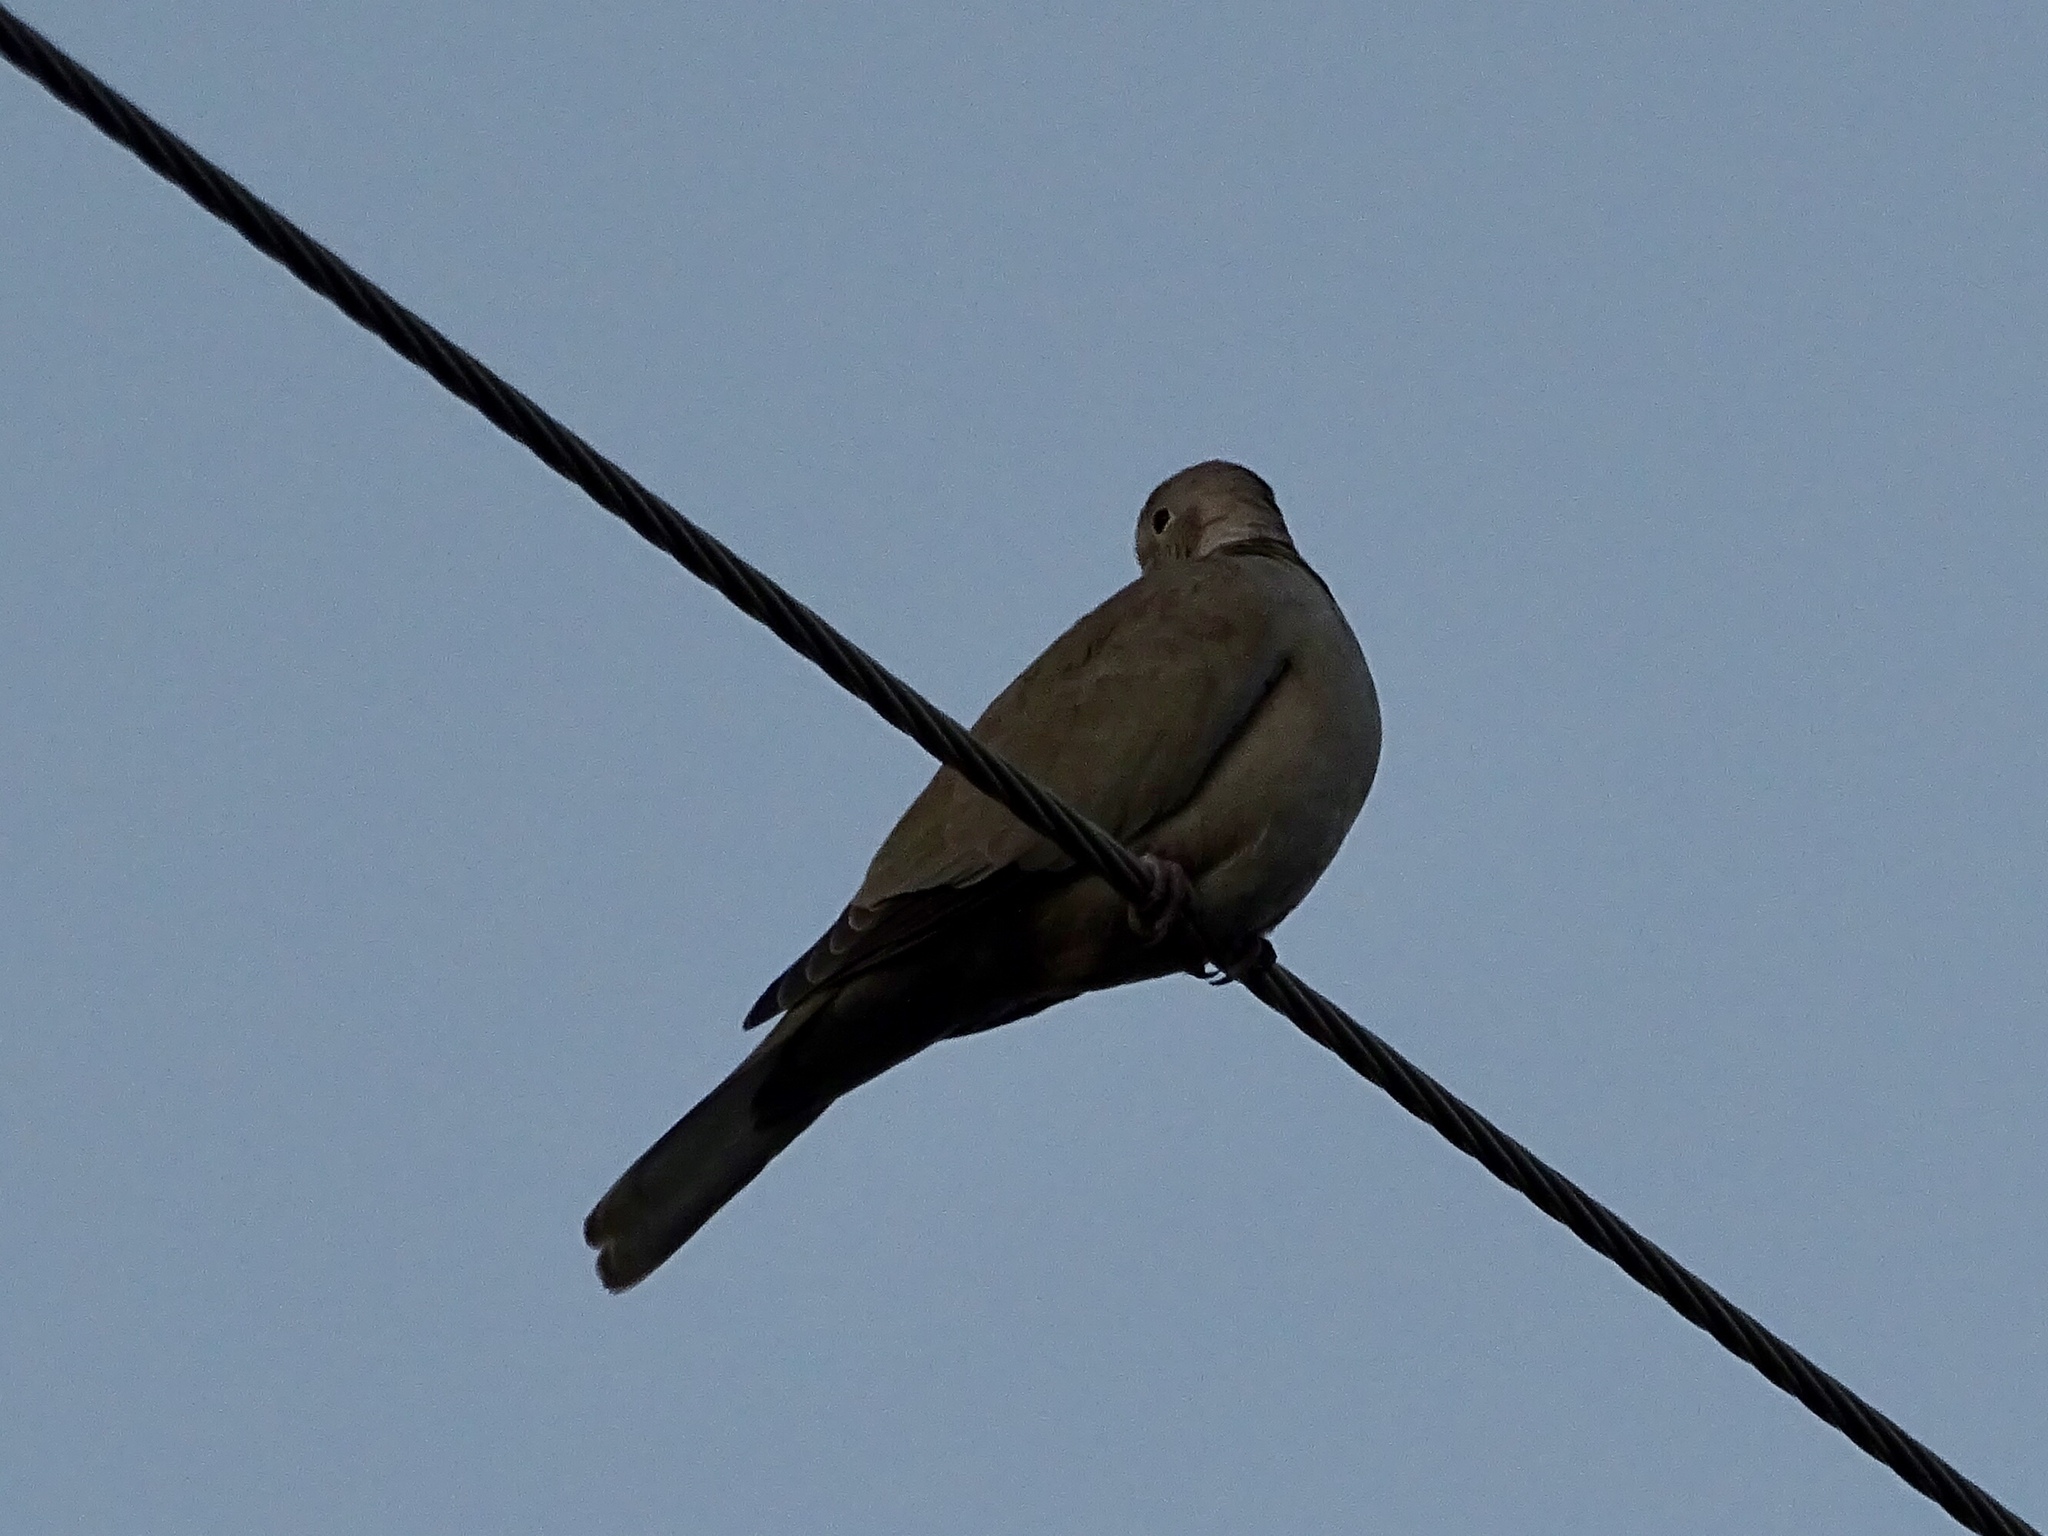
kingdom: Animalia
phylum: Chordata
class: Aves
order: Columbiformes
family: Columbidae
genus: Streptopelia
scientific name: Streptopelia decaocto
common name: Eurasian collared dove
